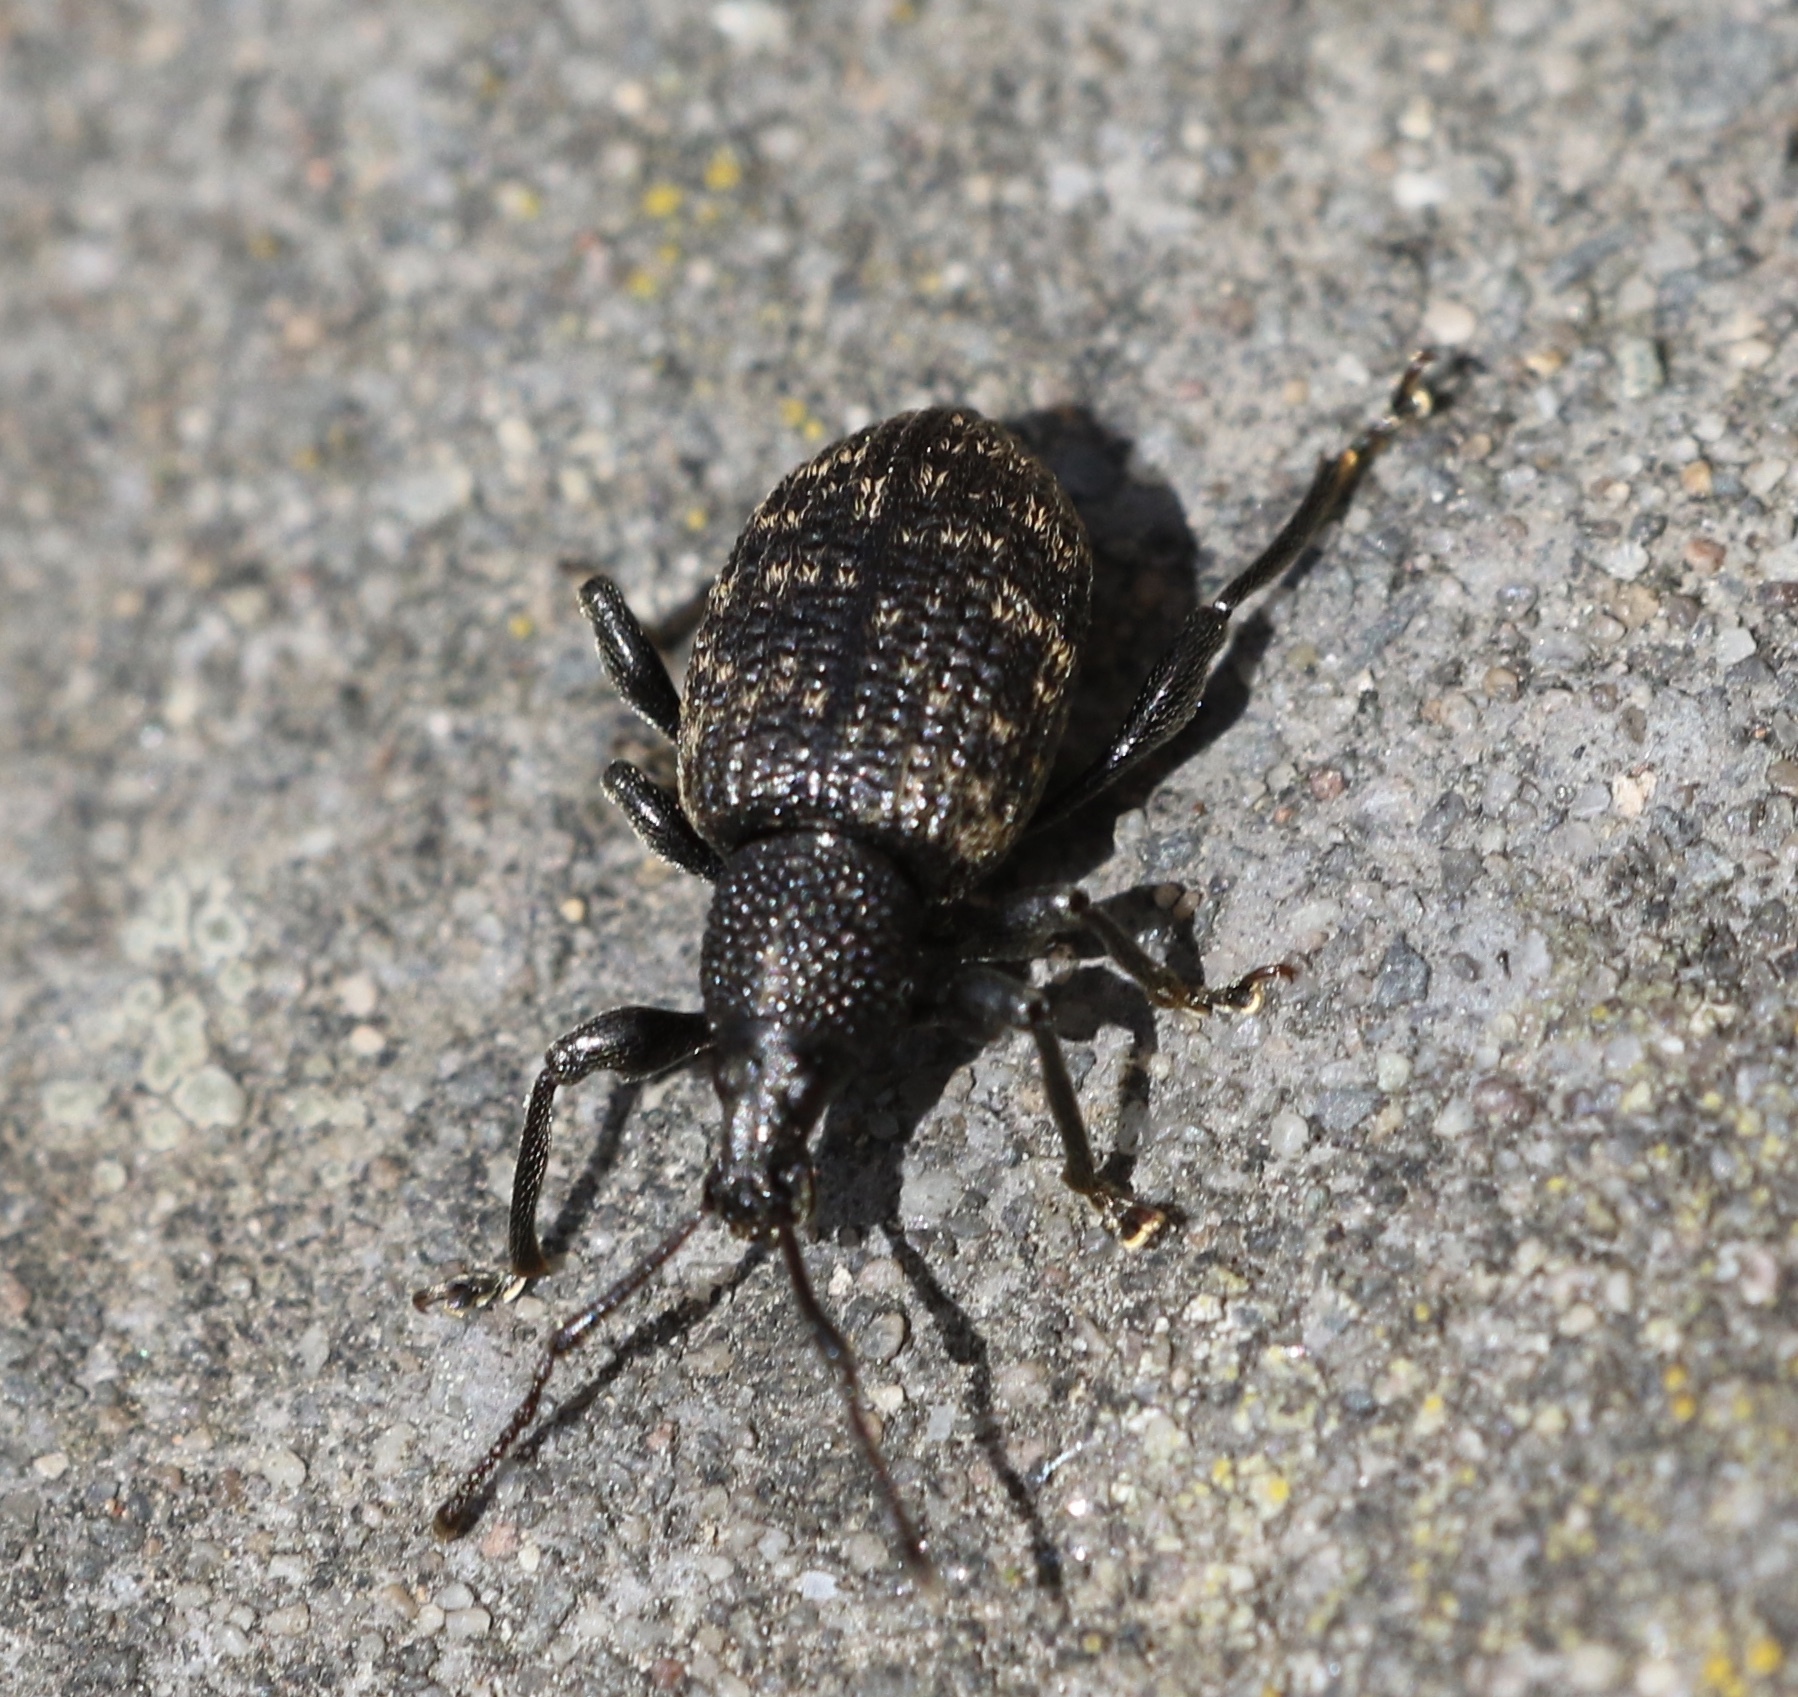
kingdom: Animalia
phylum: Arthropoda
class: Insecta
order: Coleoptera
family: Curculionidae
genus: Otiorhynchus
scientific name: Otiorhynchus sulcatus
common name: Black vine weevil
